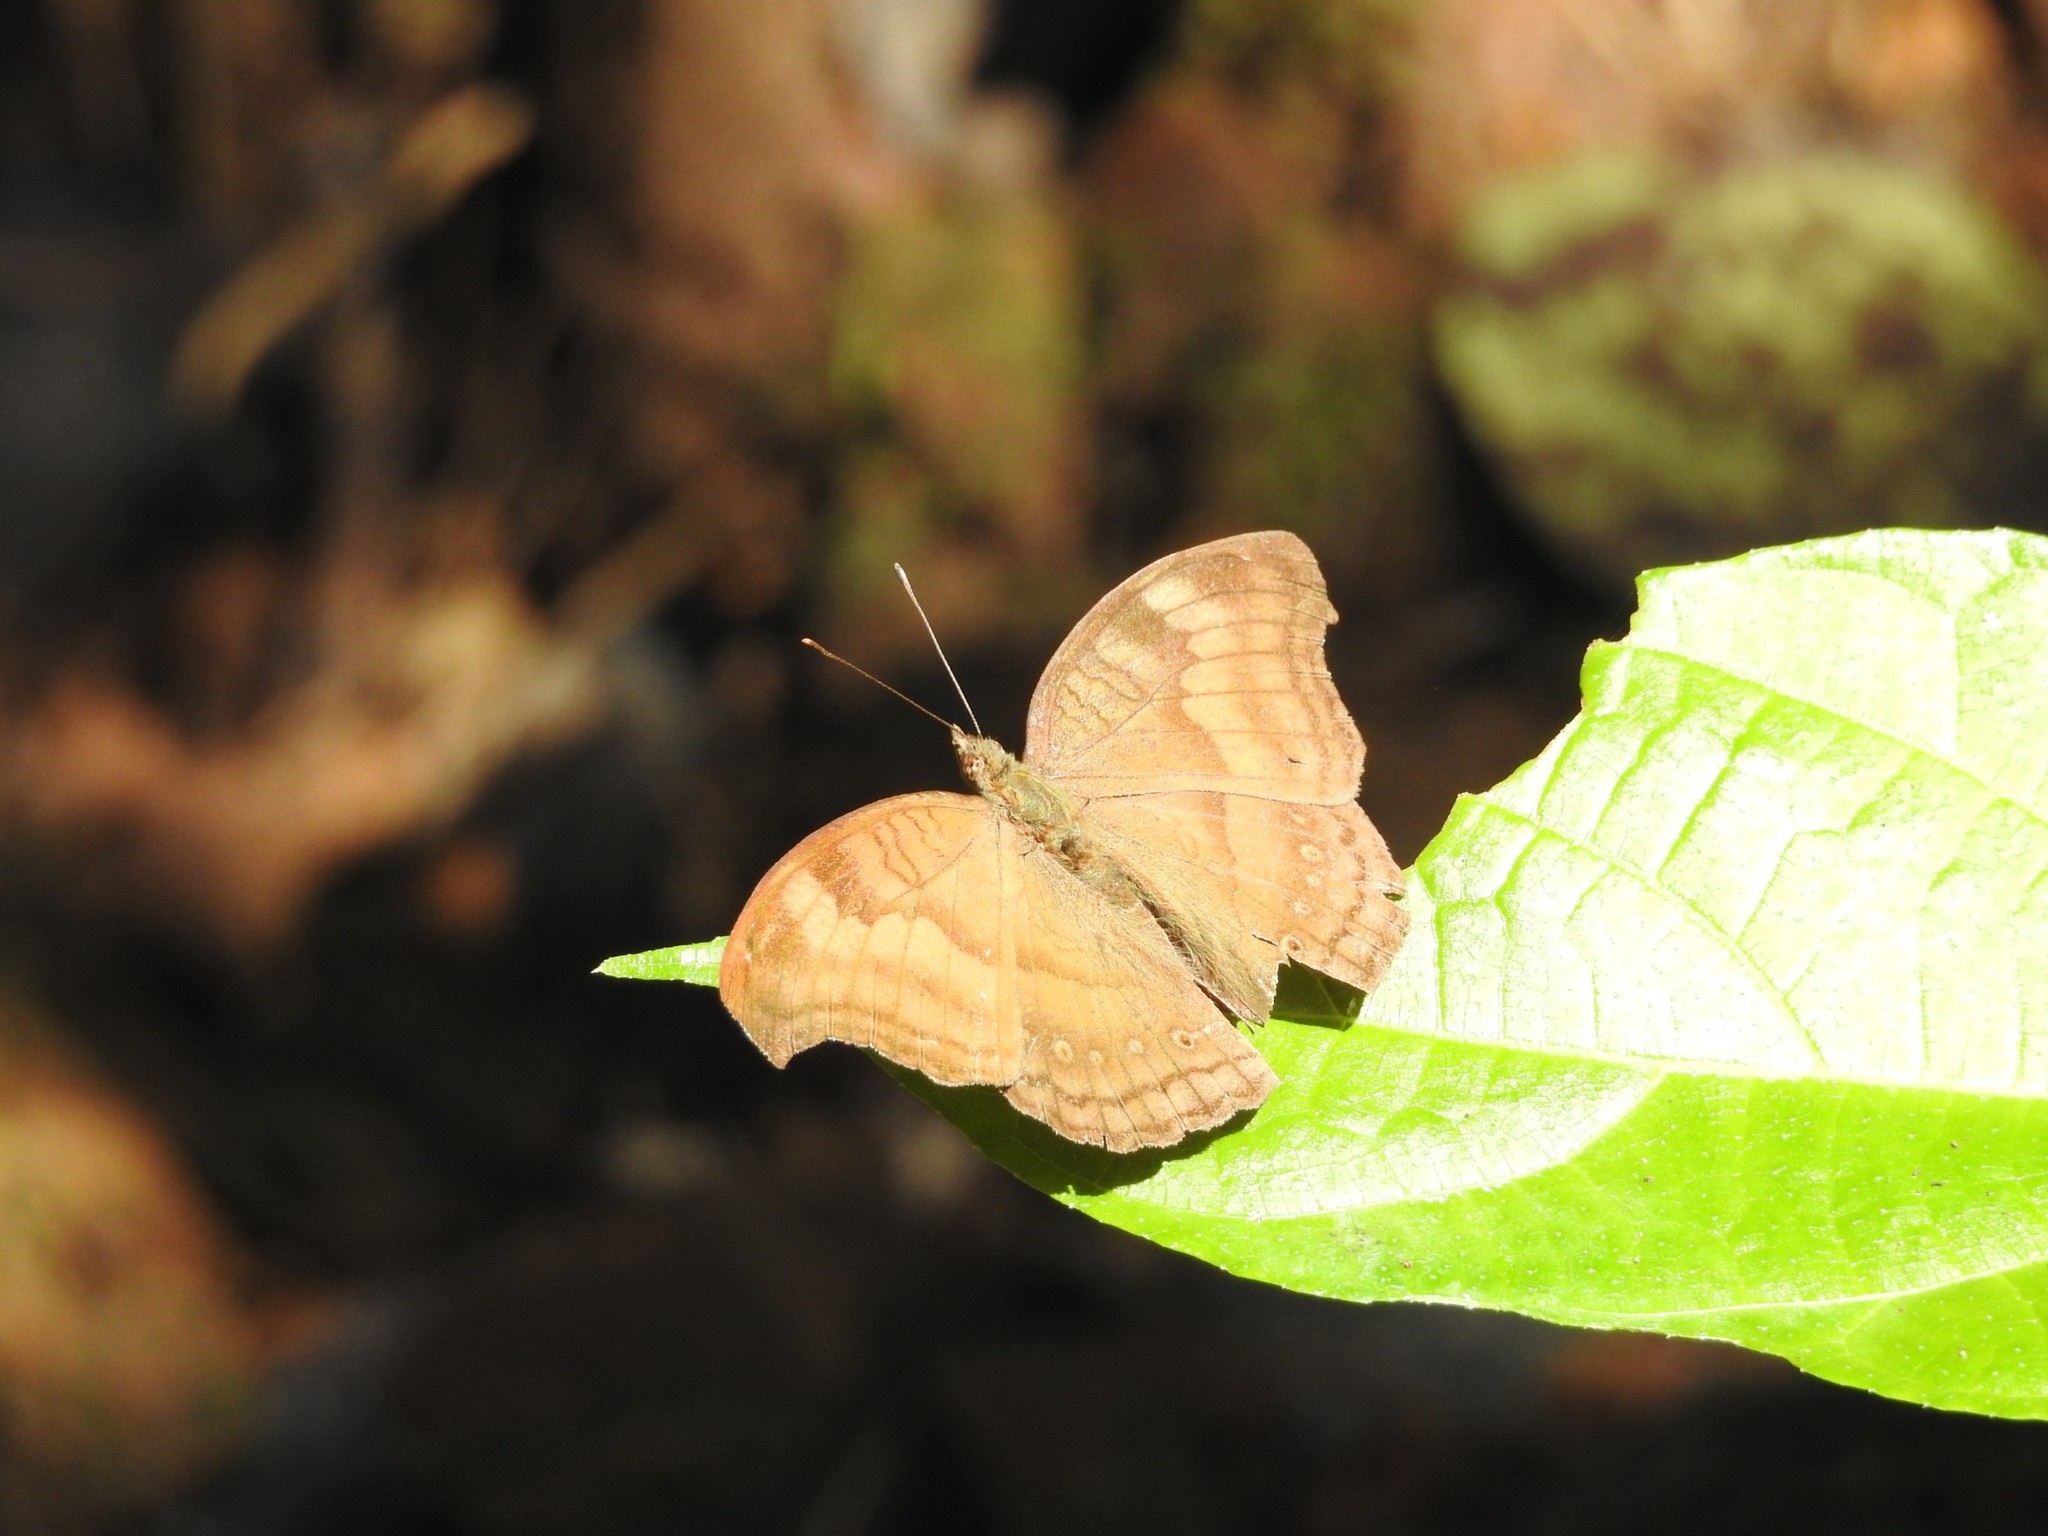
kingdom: Animalia
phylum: Arthropoda
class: Insecta
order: Lepidoptera
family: Nymphalidae
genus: Junonia
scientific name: Junonia iphita
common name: Chocolate pansy
